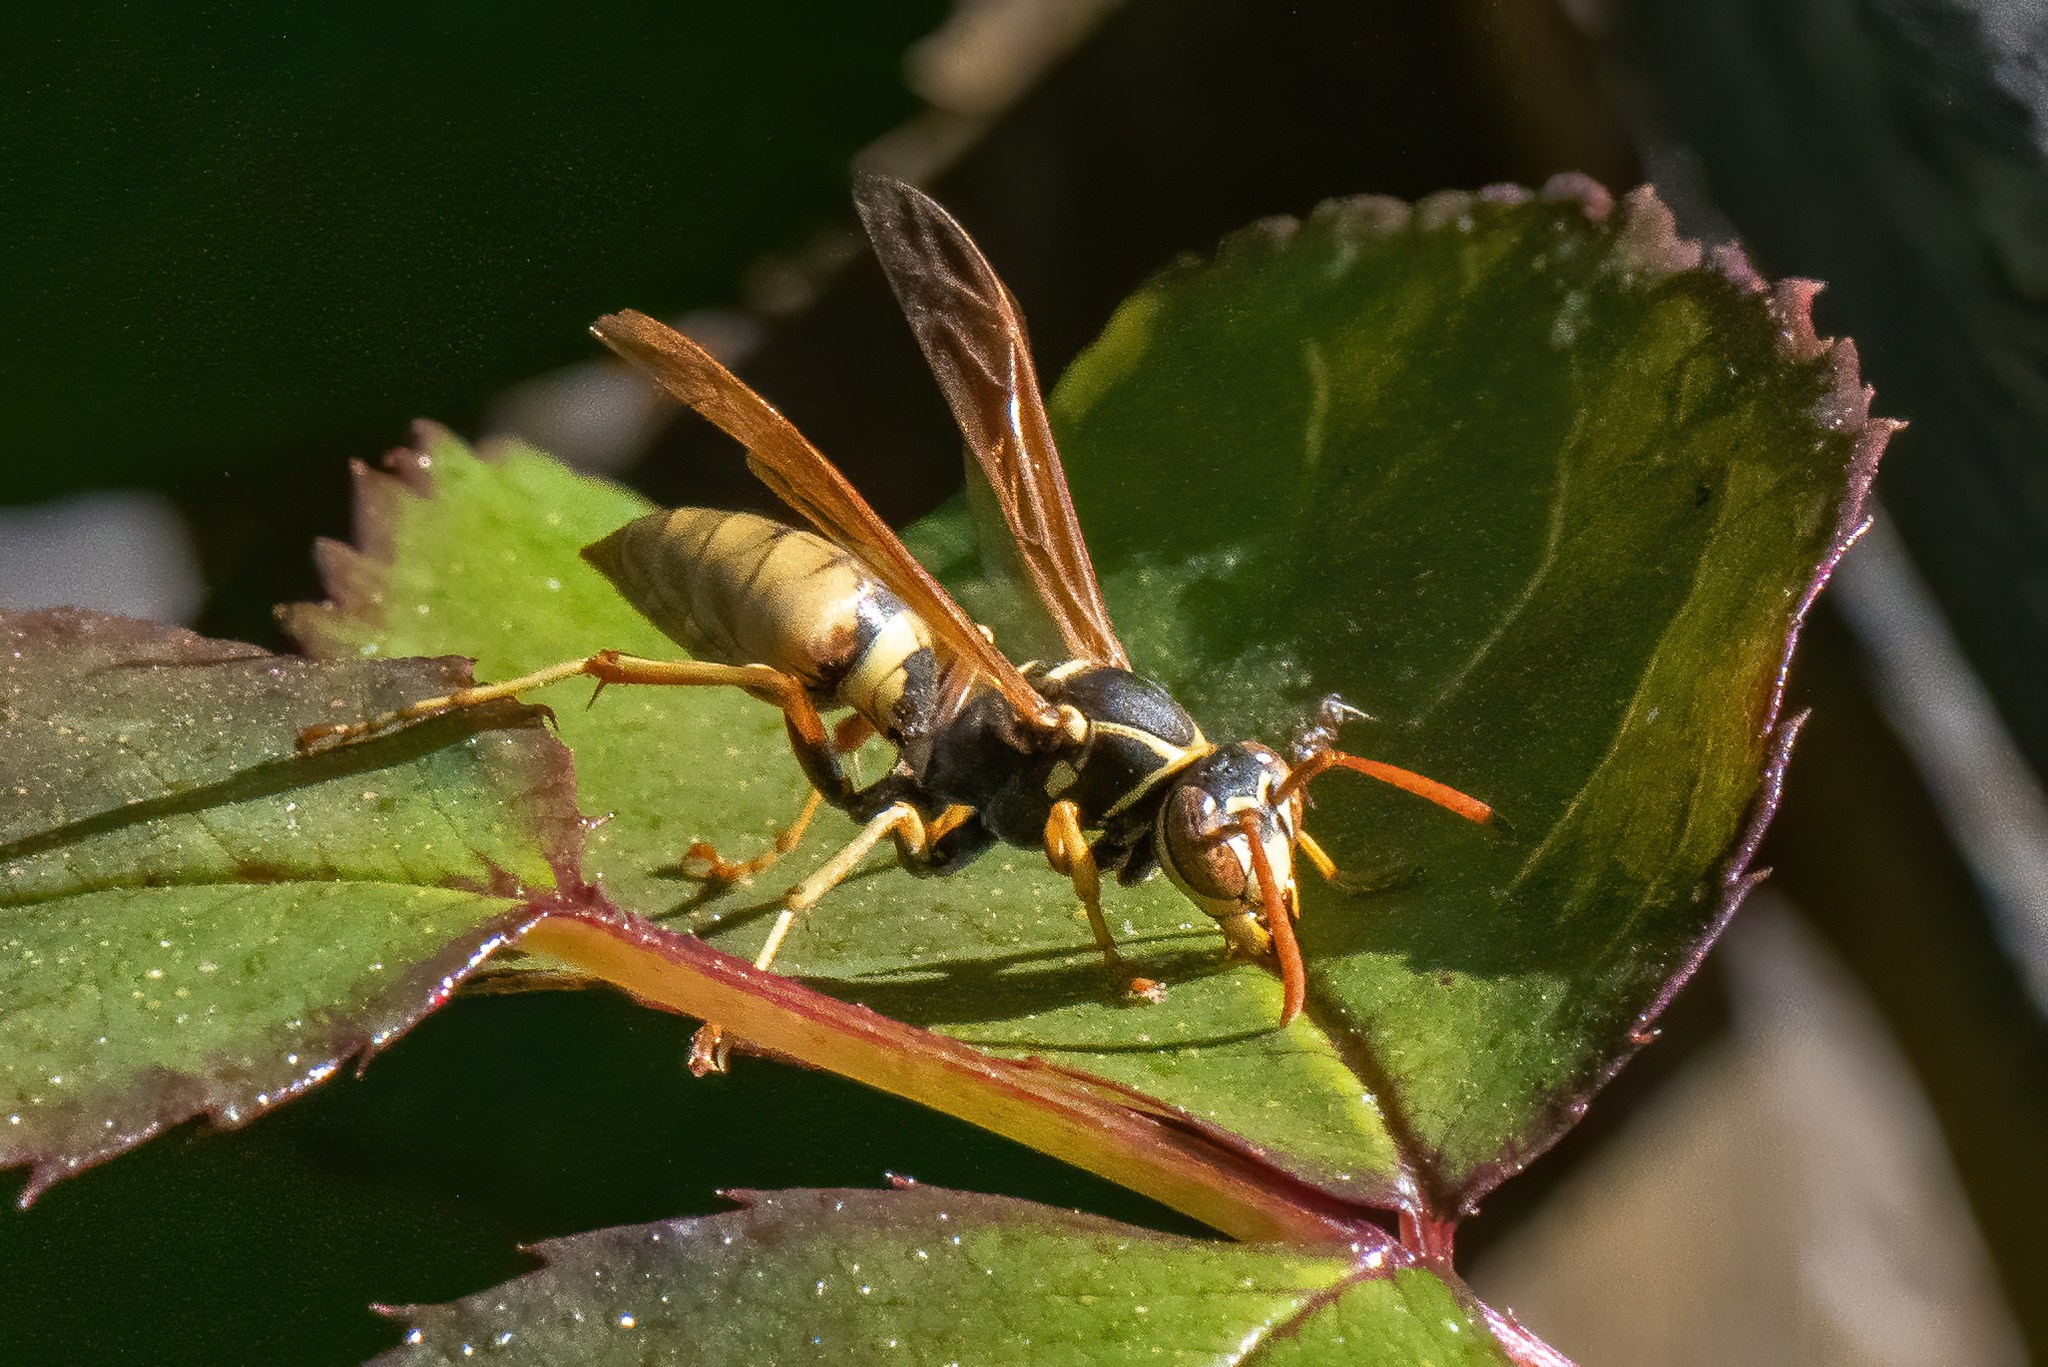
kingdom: Animalia
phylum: Arthropoda
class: Insecta
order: Hymenoptera
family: Eumenidae
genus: Polistes
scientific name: Polistes aurifer
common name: Paper wasp
